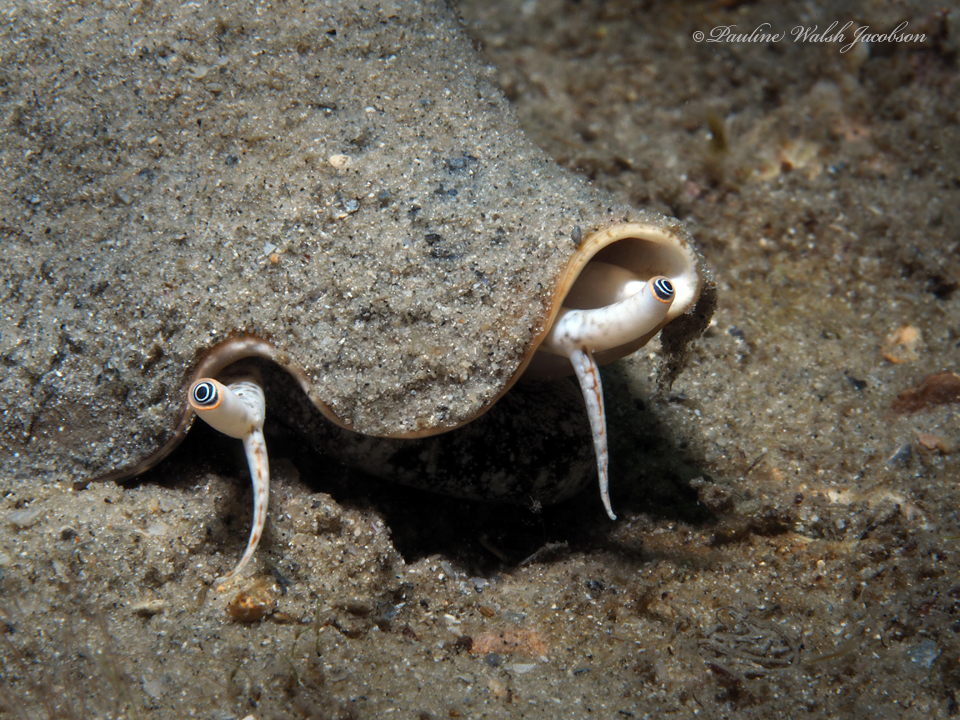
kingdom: Animalia
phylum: Mollusca
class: Gastropoda
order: Littorinimorpha
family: Strombidae
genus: Strombus
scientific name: Strombus alatus
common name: Florida fighting conch
